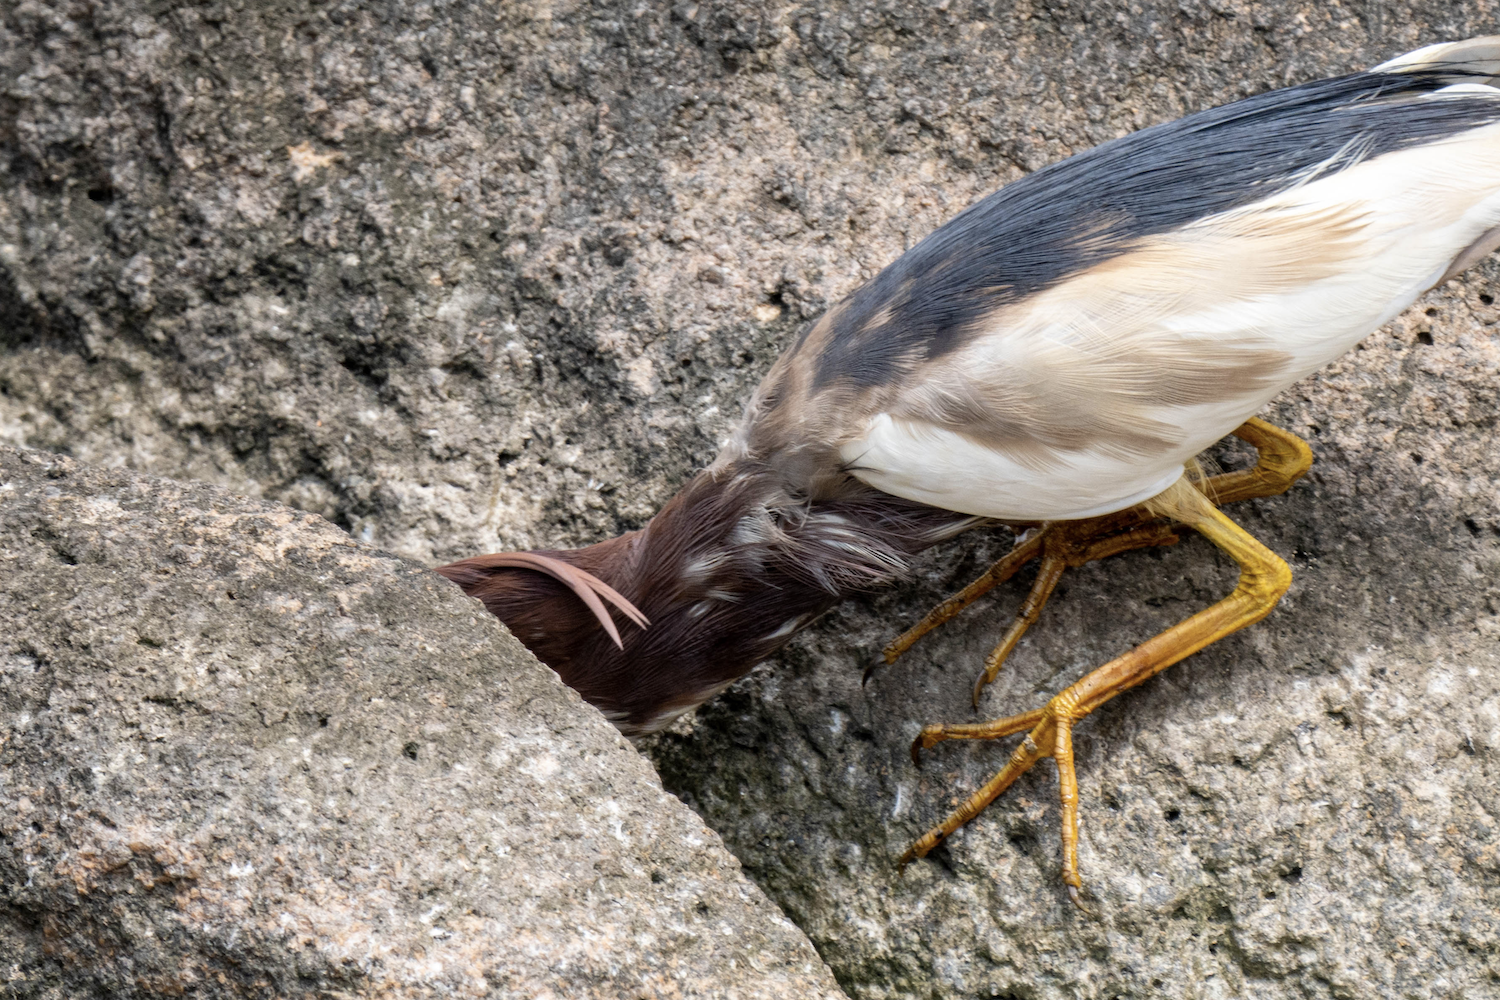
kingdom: Animalia
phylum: Chordata
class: Aves
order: Pelecaniformes
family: Ardeidae
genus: Ardeola
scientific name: Ardeola bacchus
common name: Chinese pond heron
